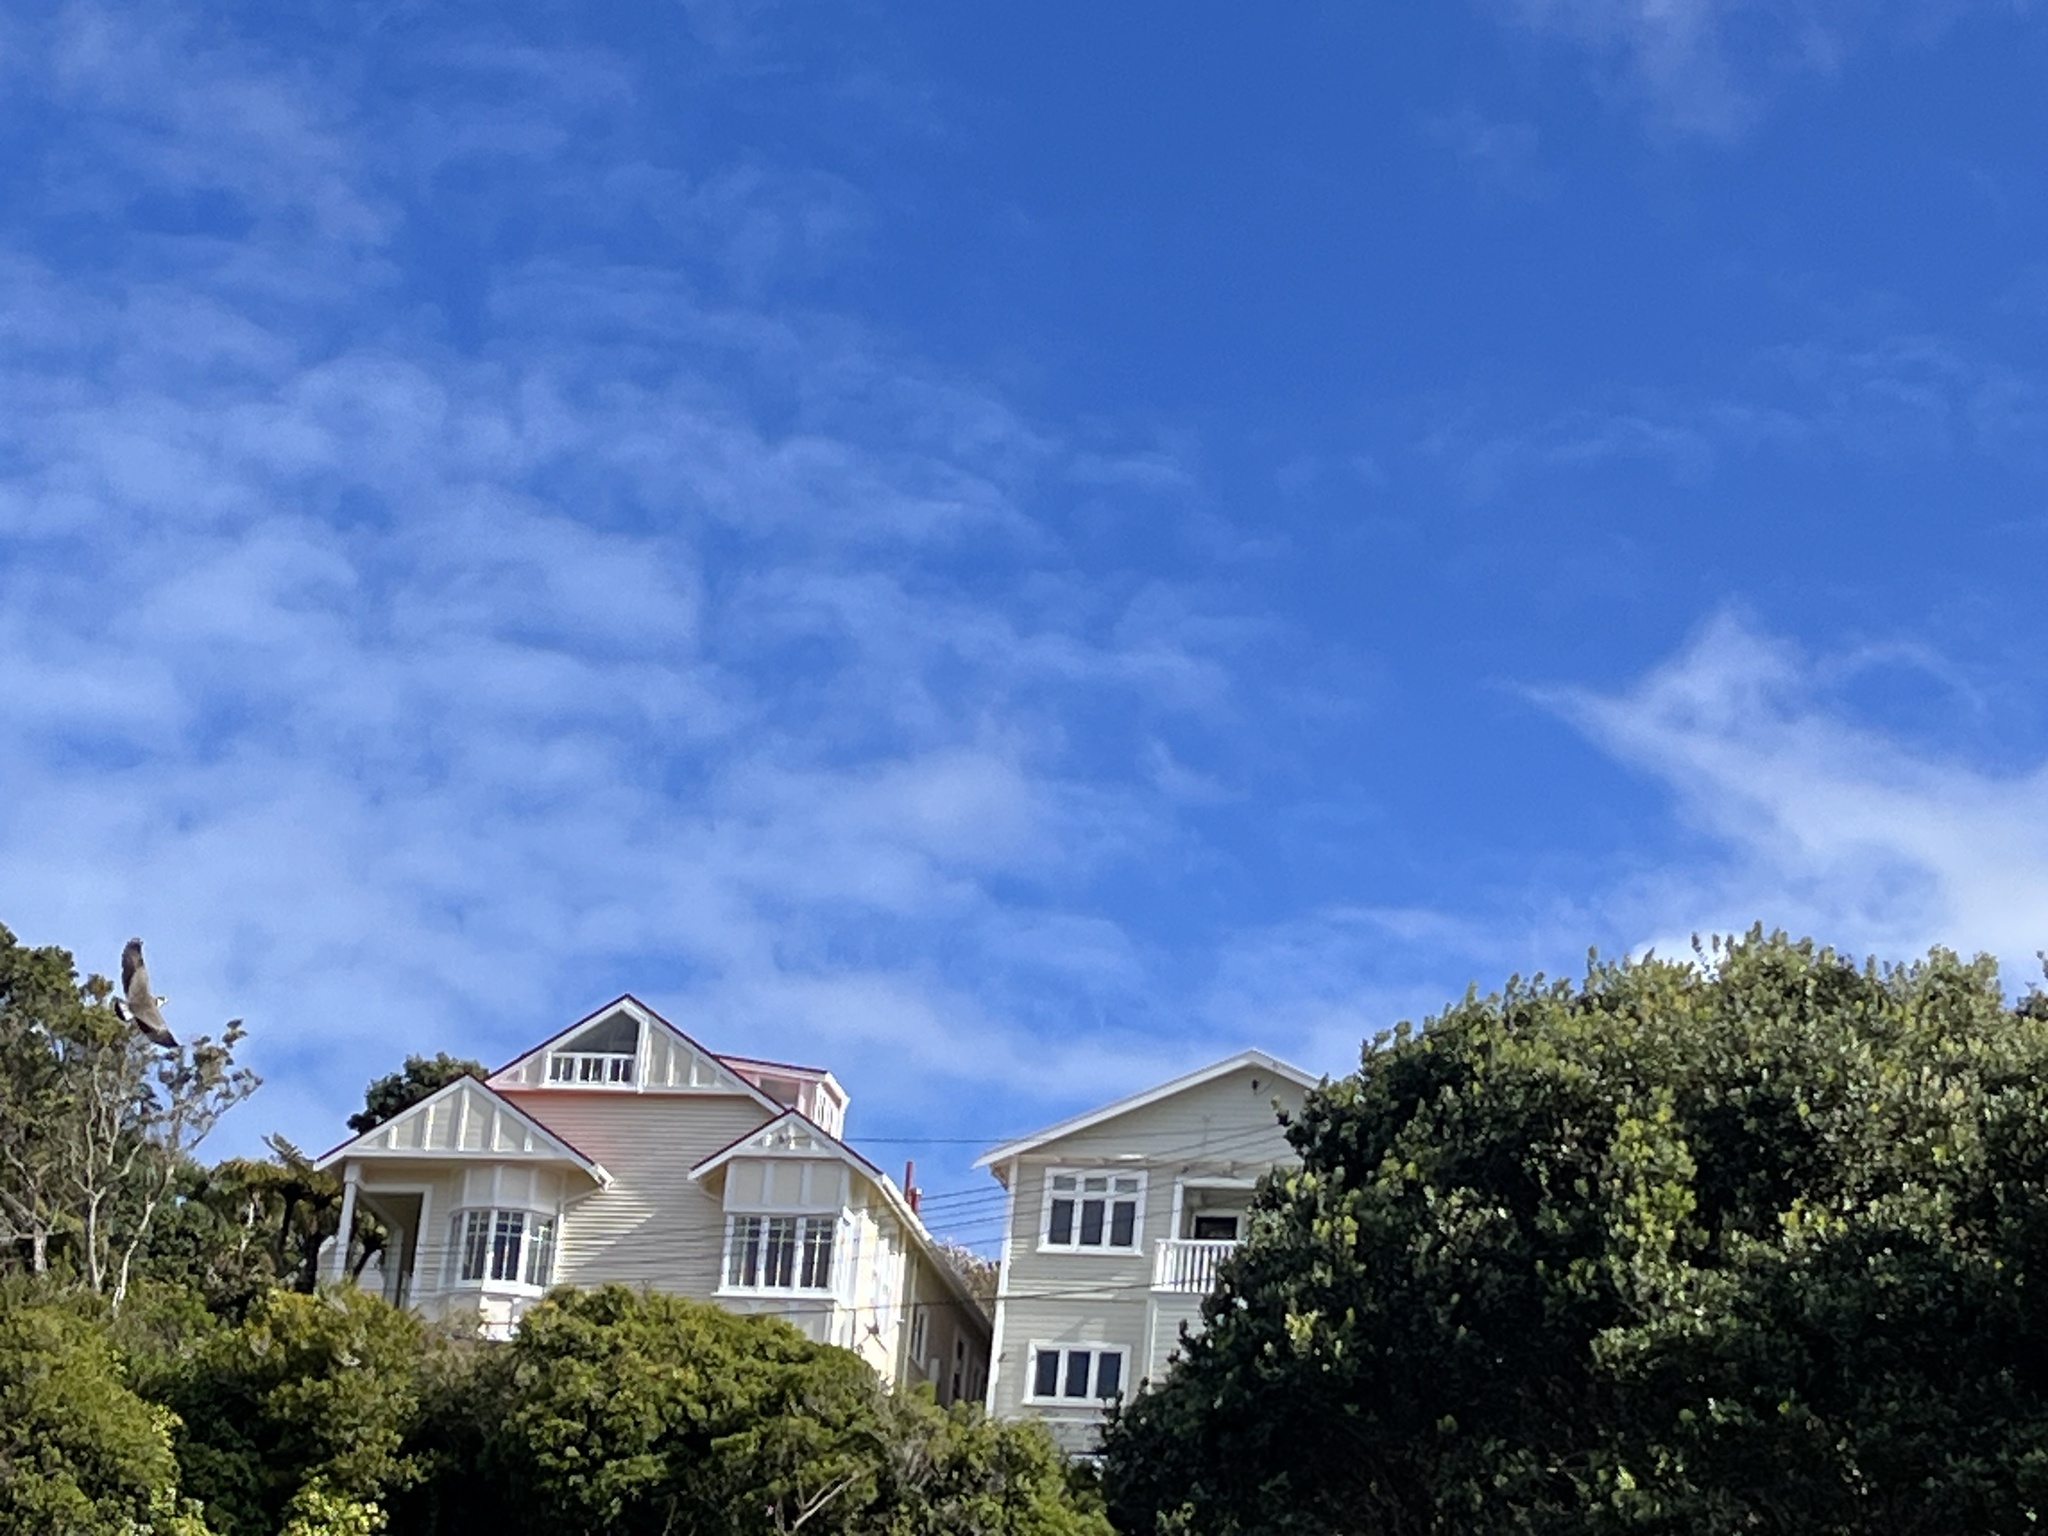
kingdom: Animalia
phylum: Chordata
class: Aves
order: Charadriiformes
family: Charadriidae
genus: Vanellus
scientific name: Vanellus miles
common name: Masked lapwing
